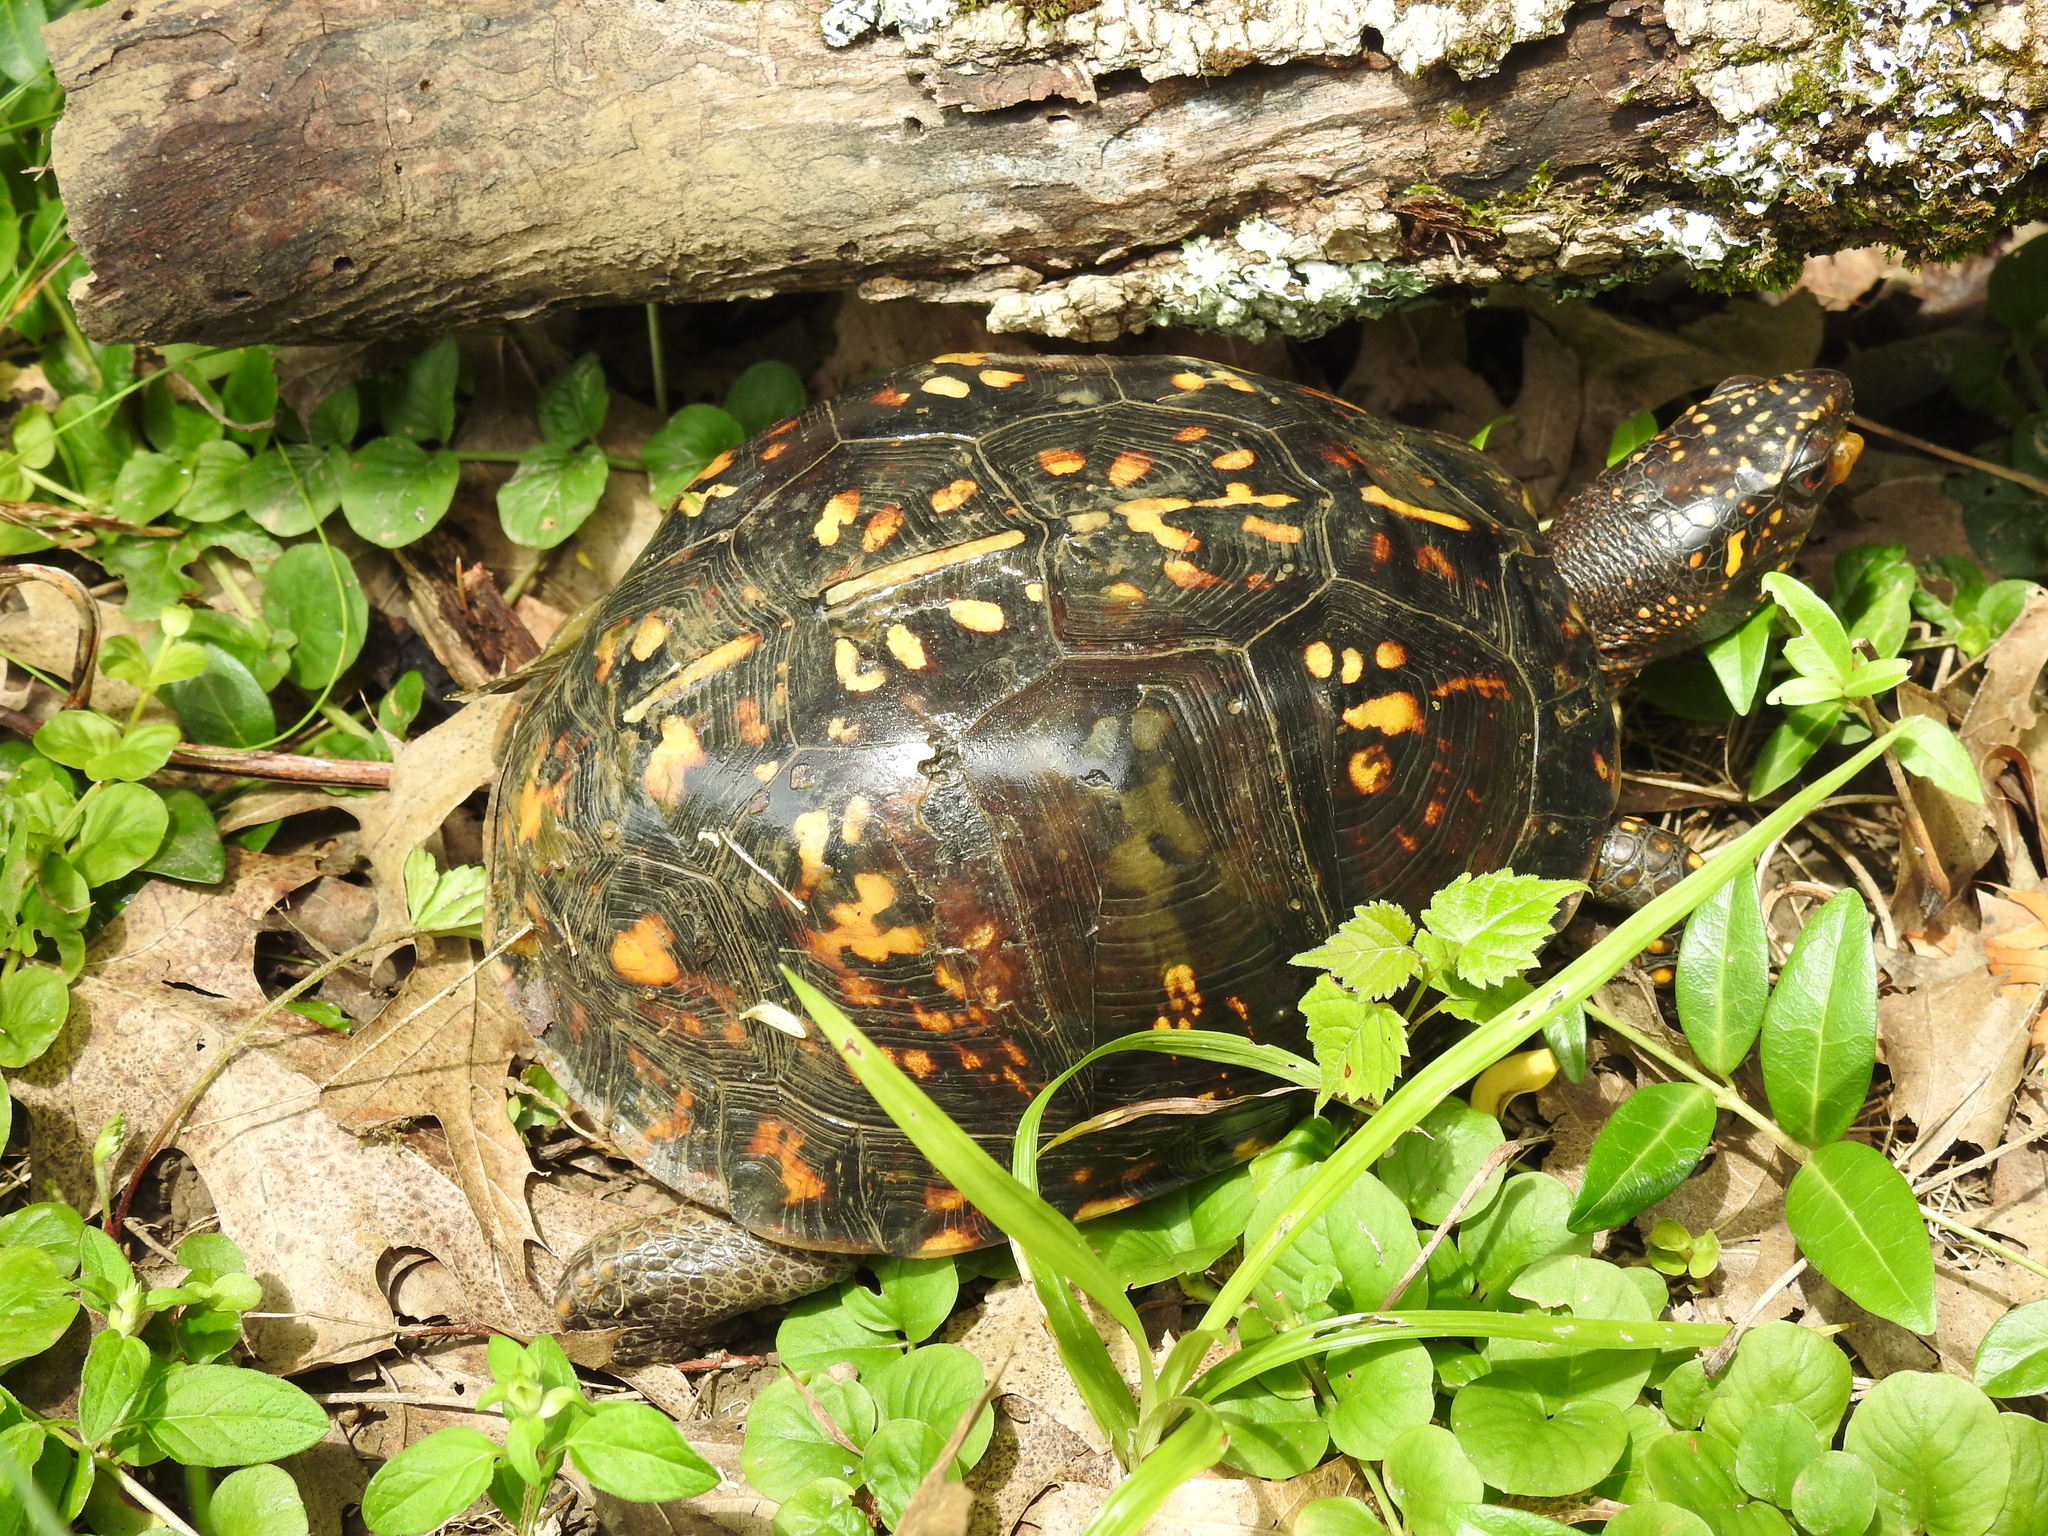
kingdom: Animalia
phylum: Chordata
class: Testudines
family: Emydidae
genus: Terrapene
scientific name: Terrapene carolina
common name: Common box turtle
